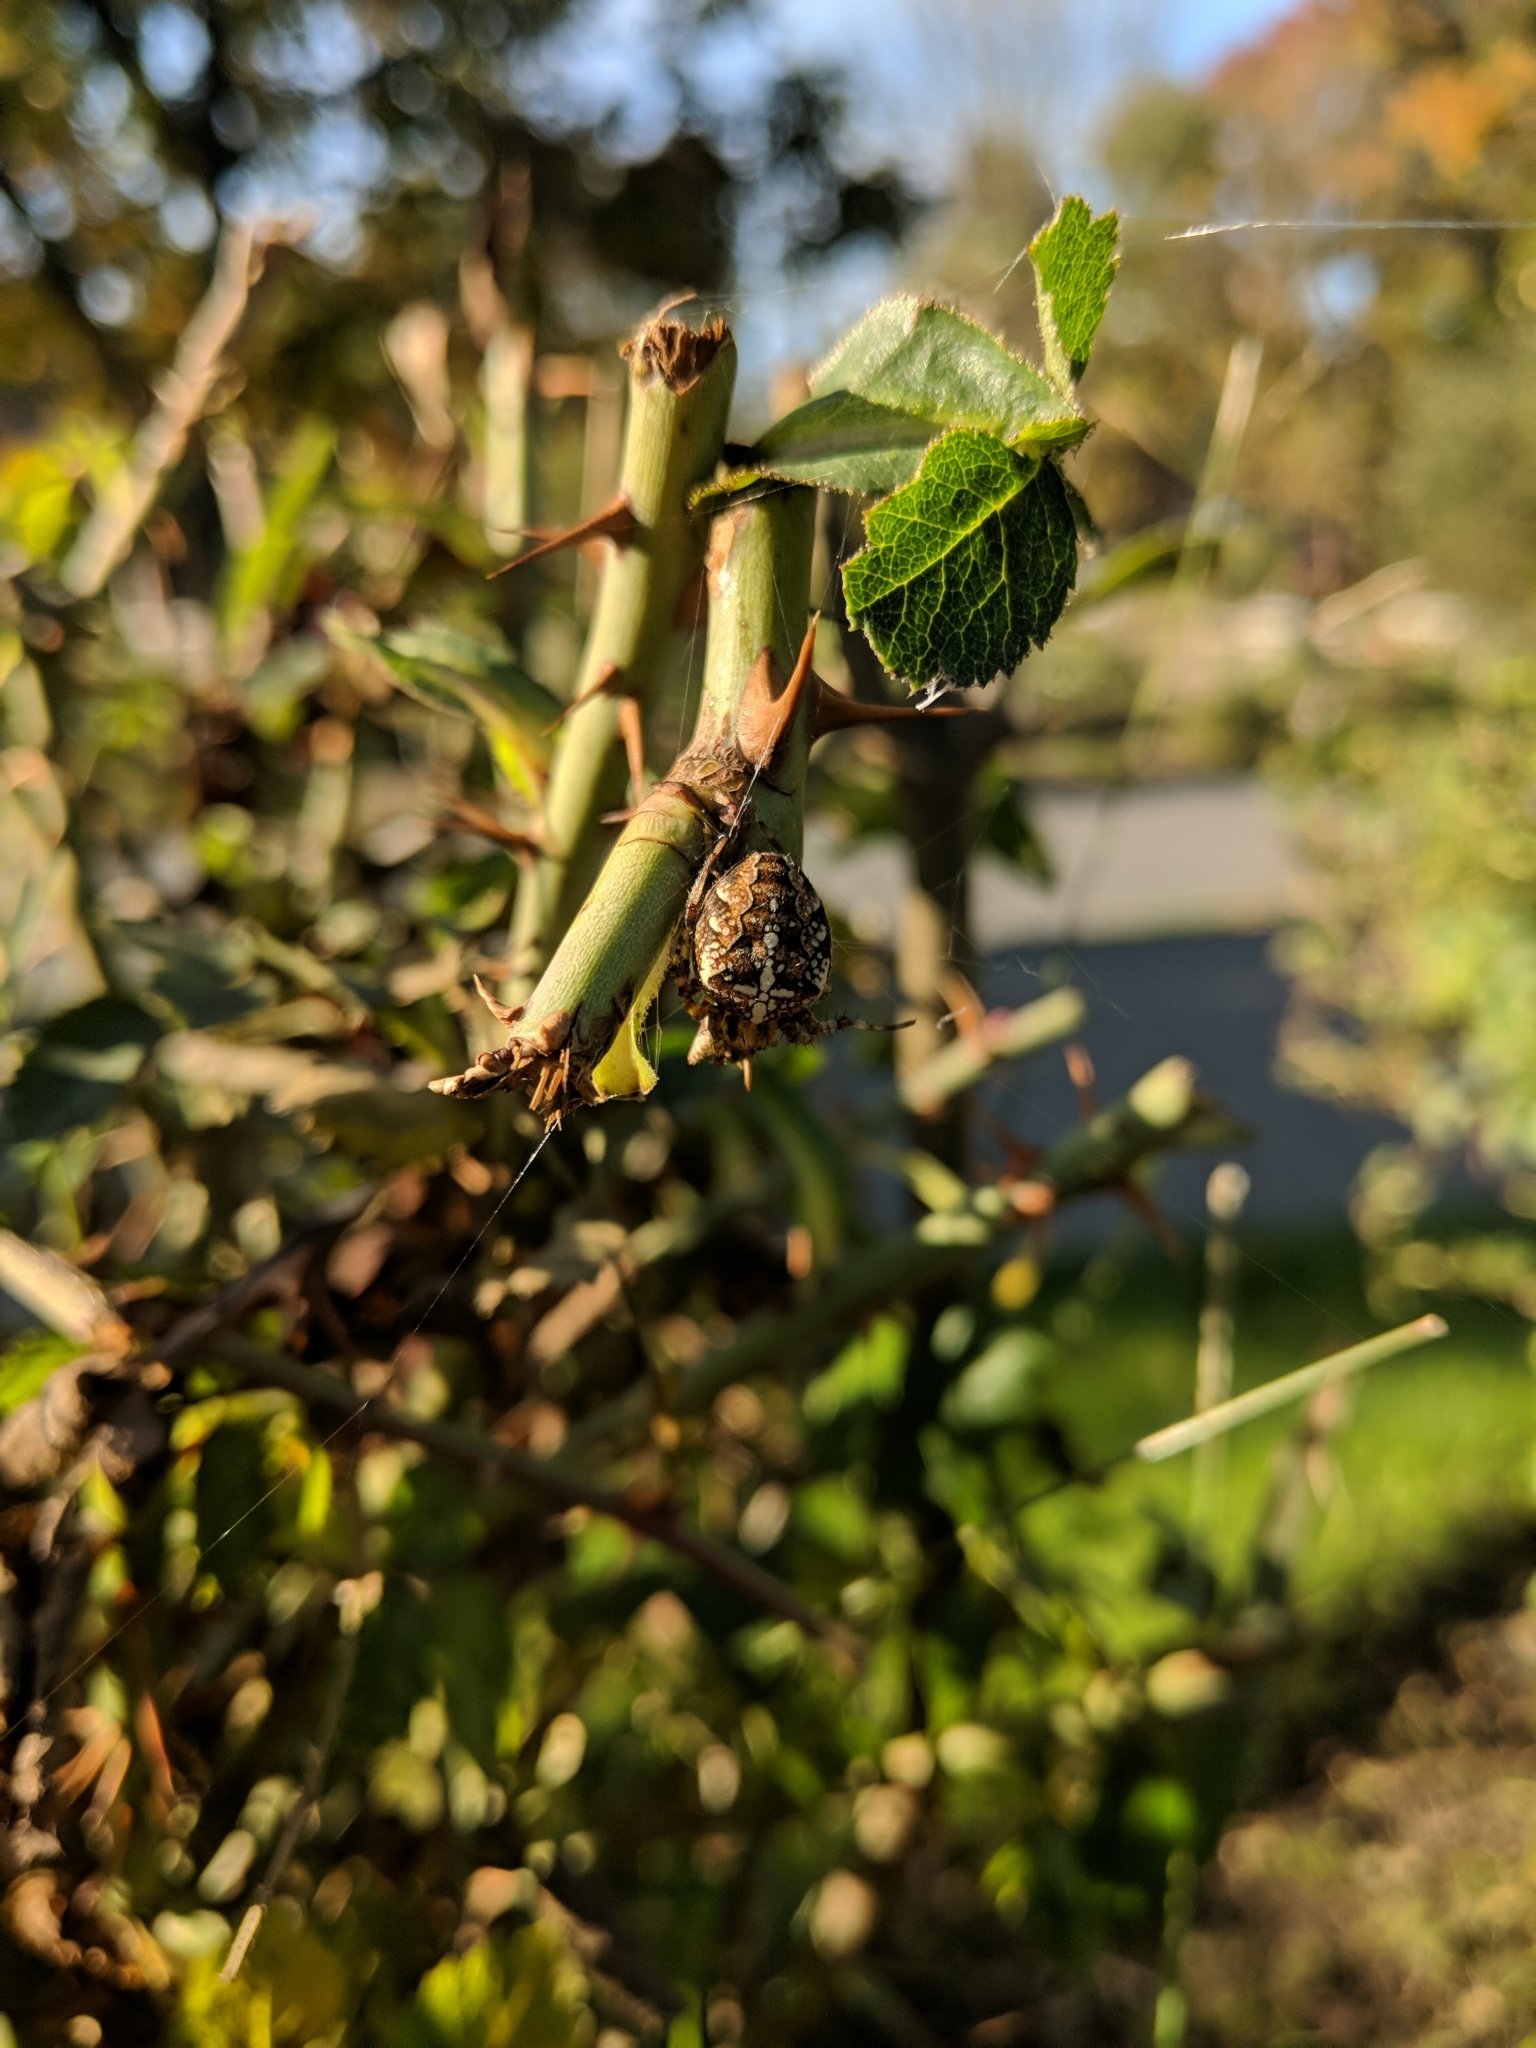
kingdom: Animalia
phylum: Arthropoda
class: Arachnida
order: Araneae
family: Araneidae
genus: Araneus
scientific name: Araneus diadematus
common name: Cross orbweaver
